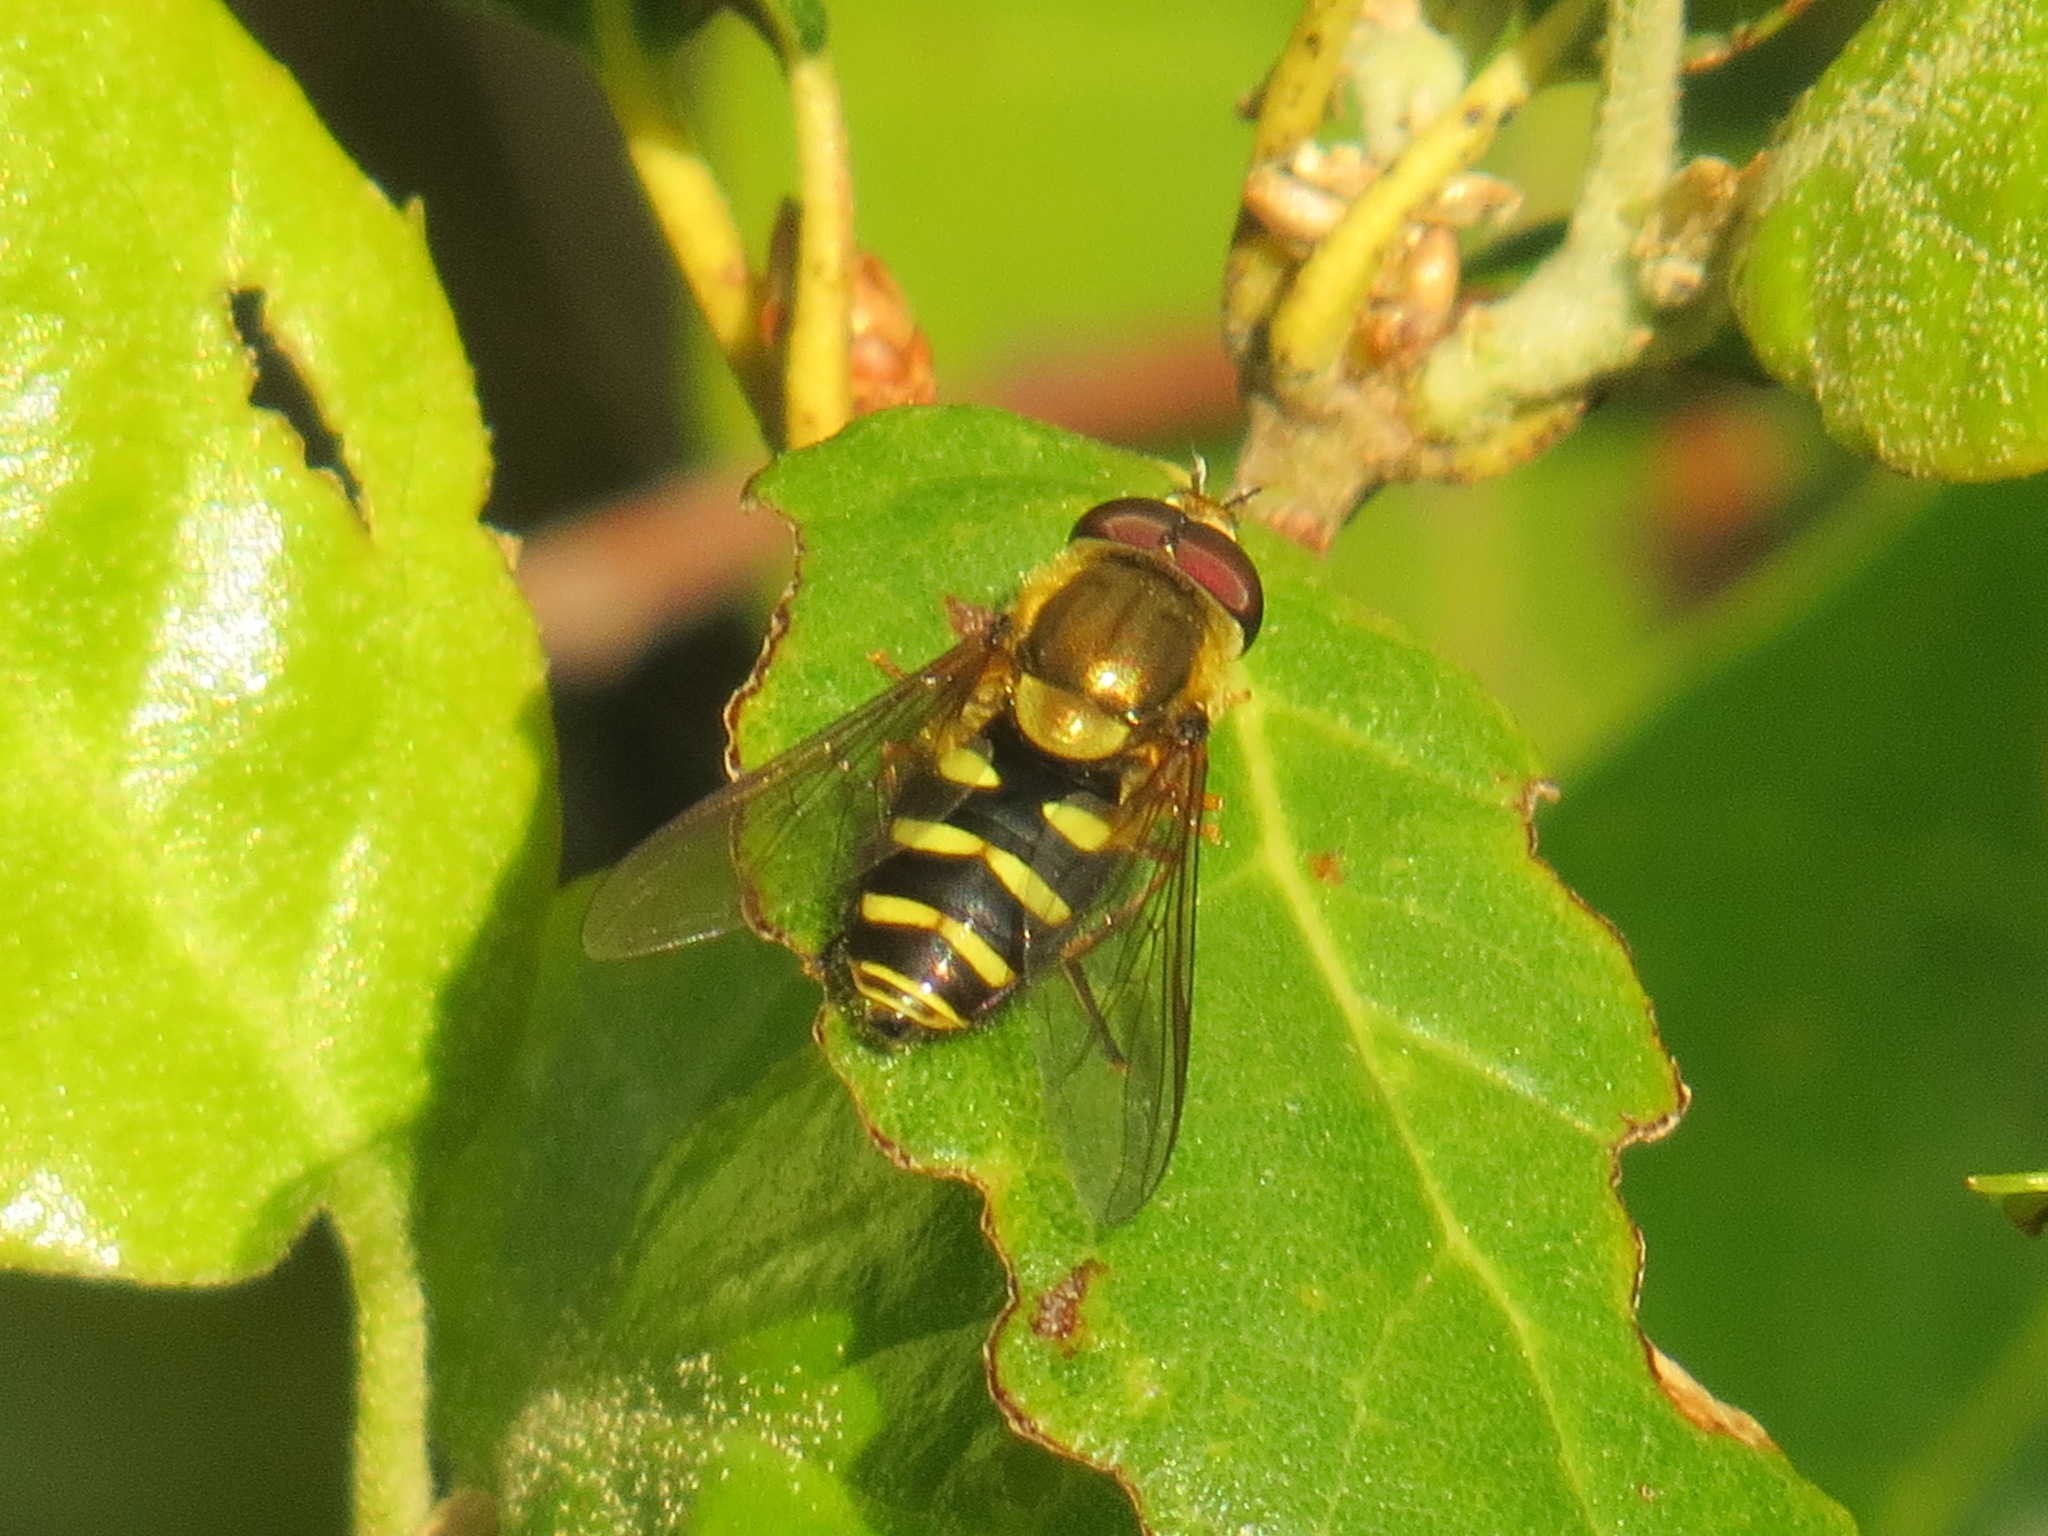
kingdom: Animalia
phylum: Arthropoda
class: Insecta
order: Diptera
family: Syrphidae
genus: Syrphus
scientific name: Syrphus opinator
